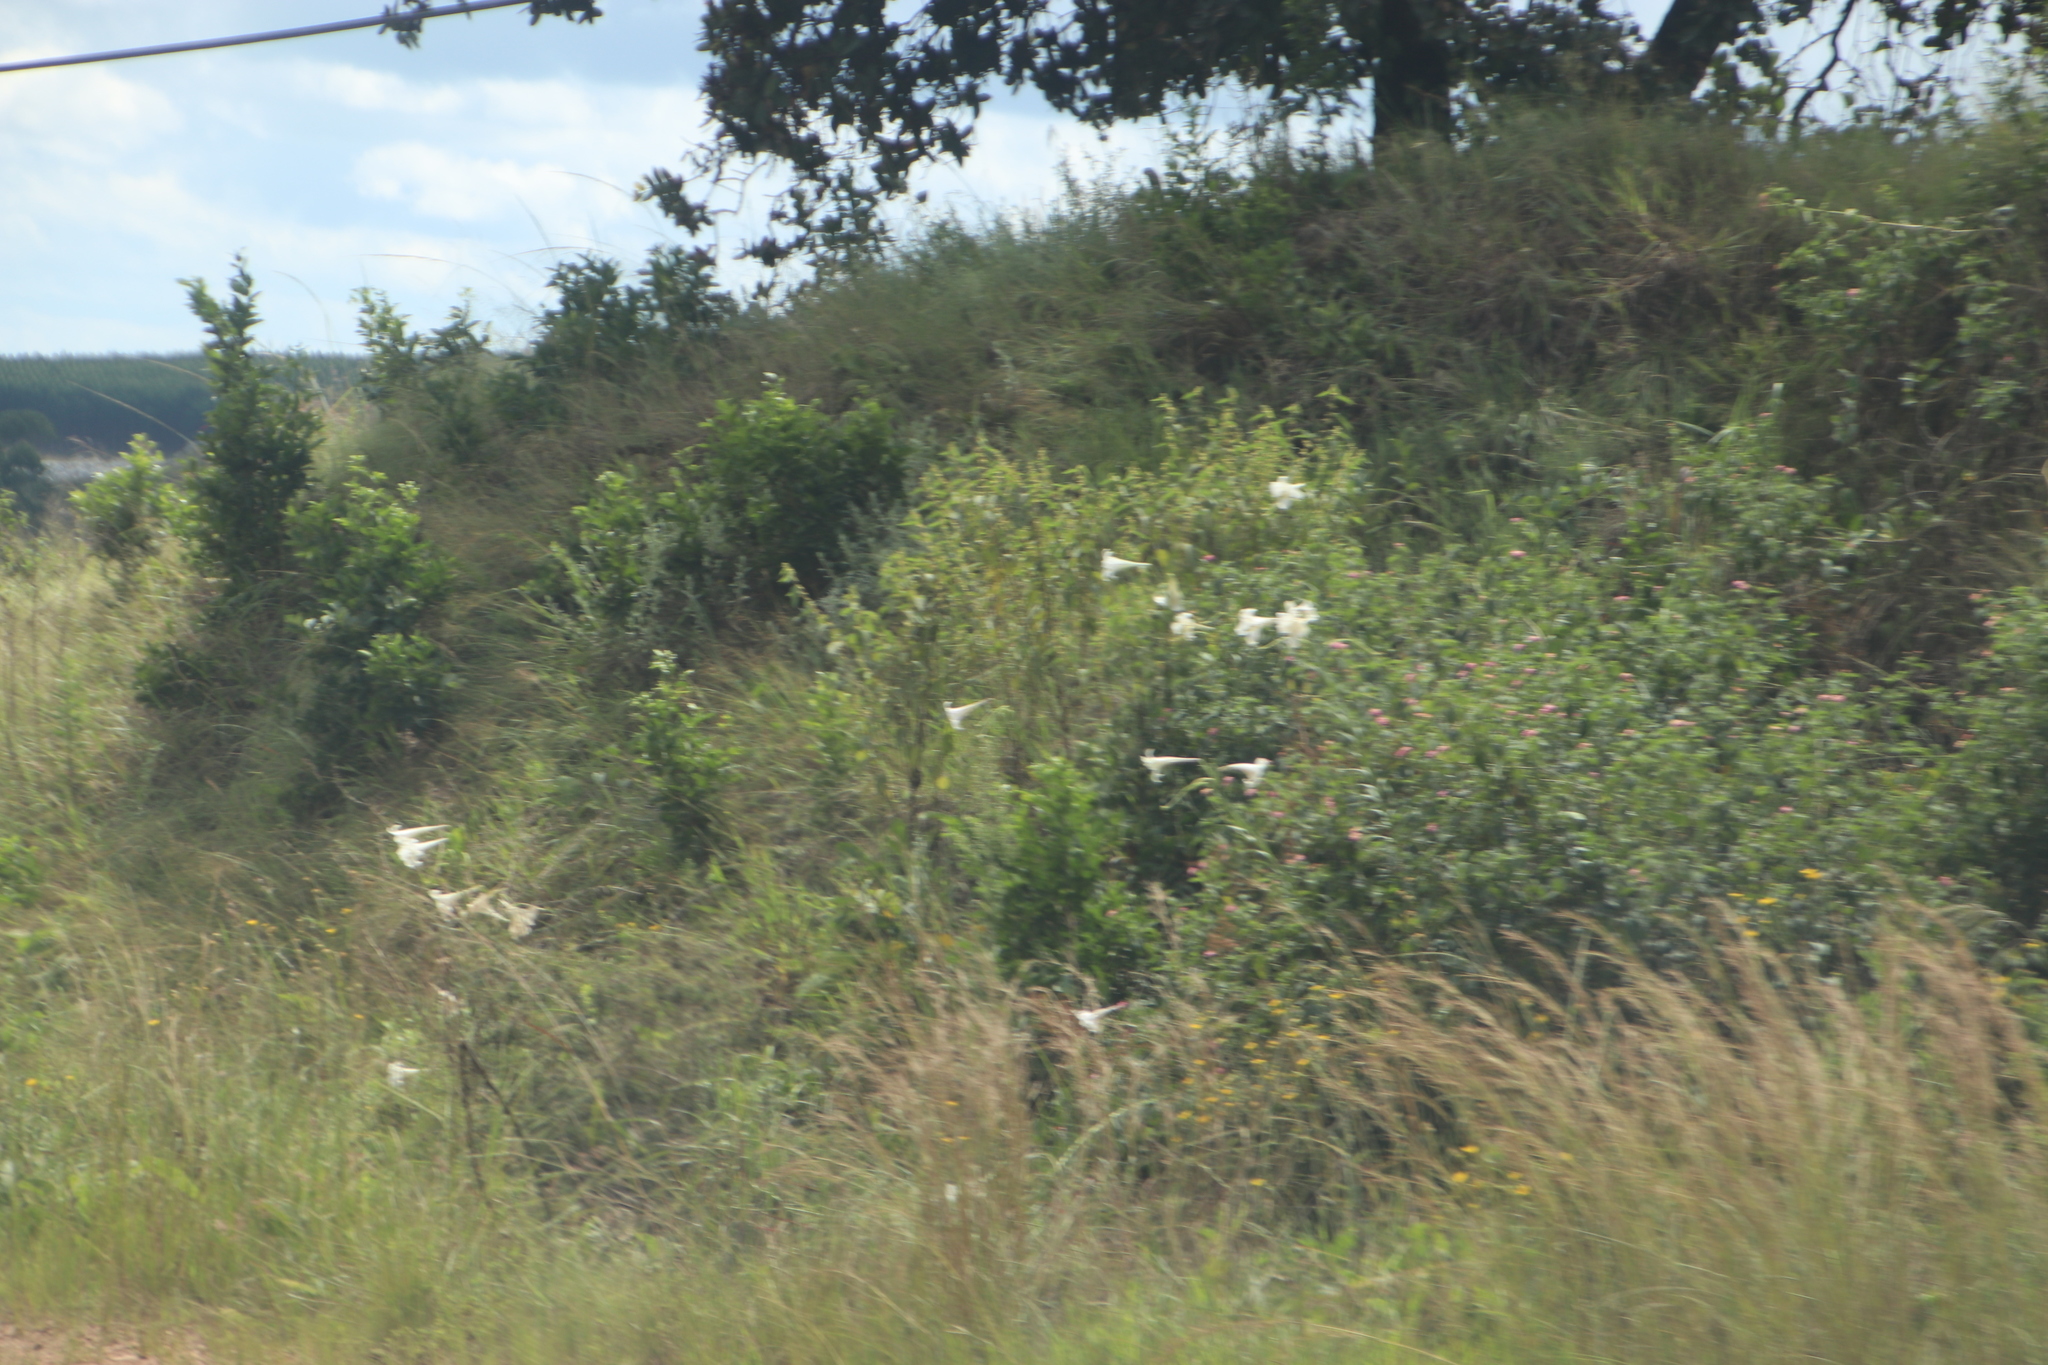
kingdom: Plantae
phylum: Tracheophyta
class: Liliopsida
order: Liliales
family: Liliaceae
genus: Lilium
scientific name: Lilium formosanum
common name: Formosa lily
